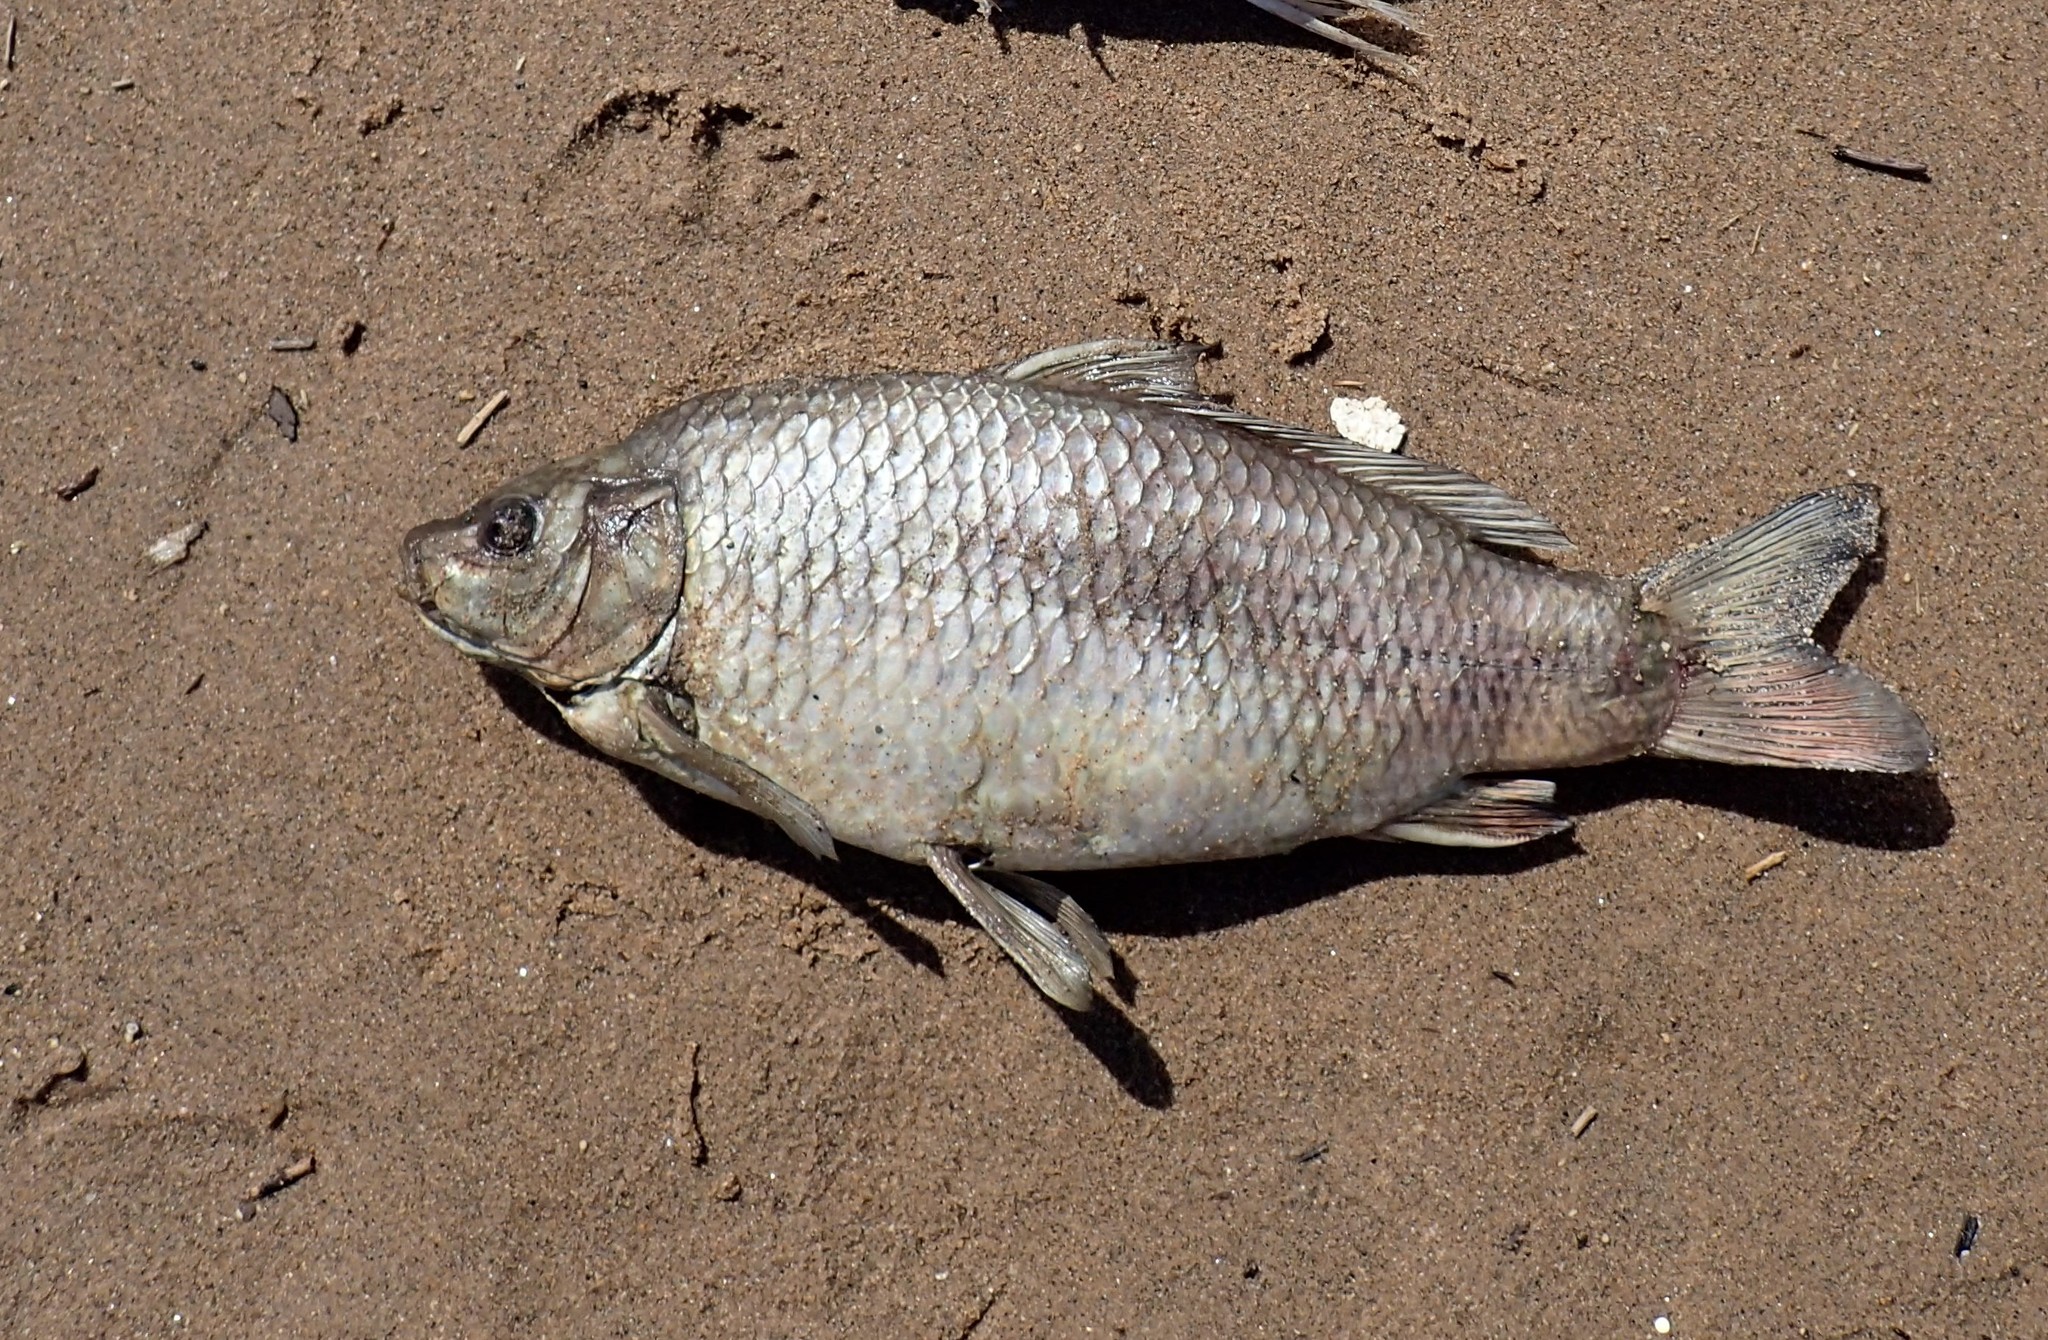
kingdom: Animalia
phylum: Chordata
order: Cypriniformes
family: Cyprinidae
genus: Cyprinus
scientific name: Cyprinus carpio
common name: Common carp
